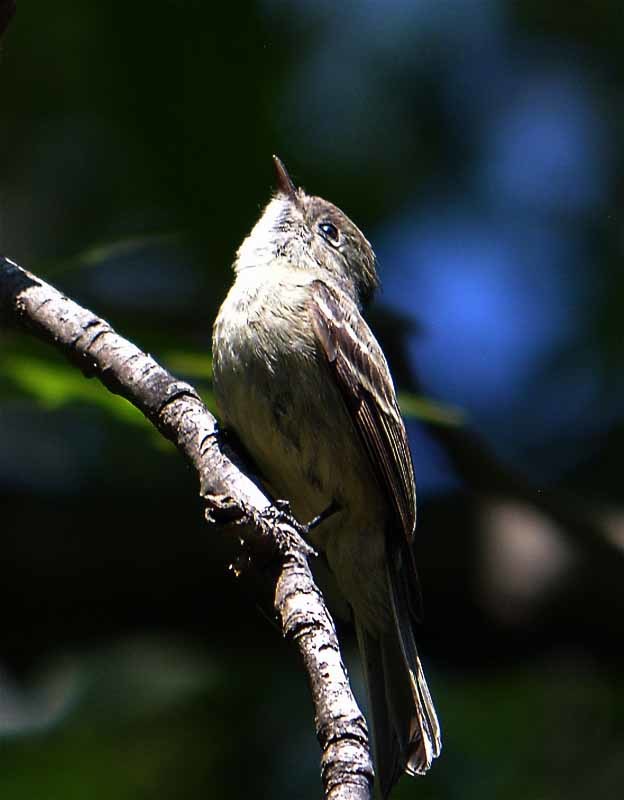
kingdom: Animalia
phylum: Chordata
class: Aves
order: Passeriformes
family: Tyrannidae
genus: Empidonax
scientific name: Empidonax hammondii
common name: Hammond's flycatcher
